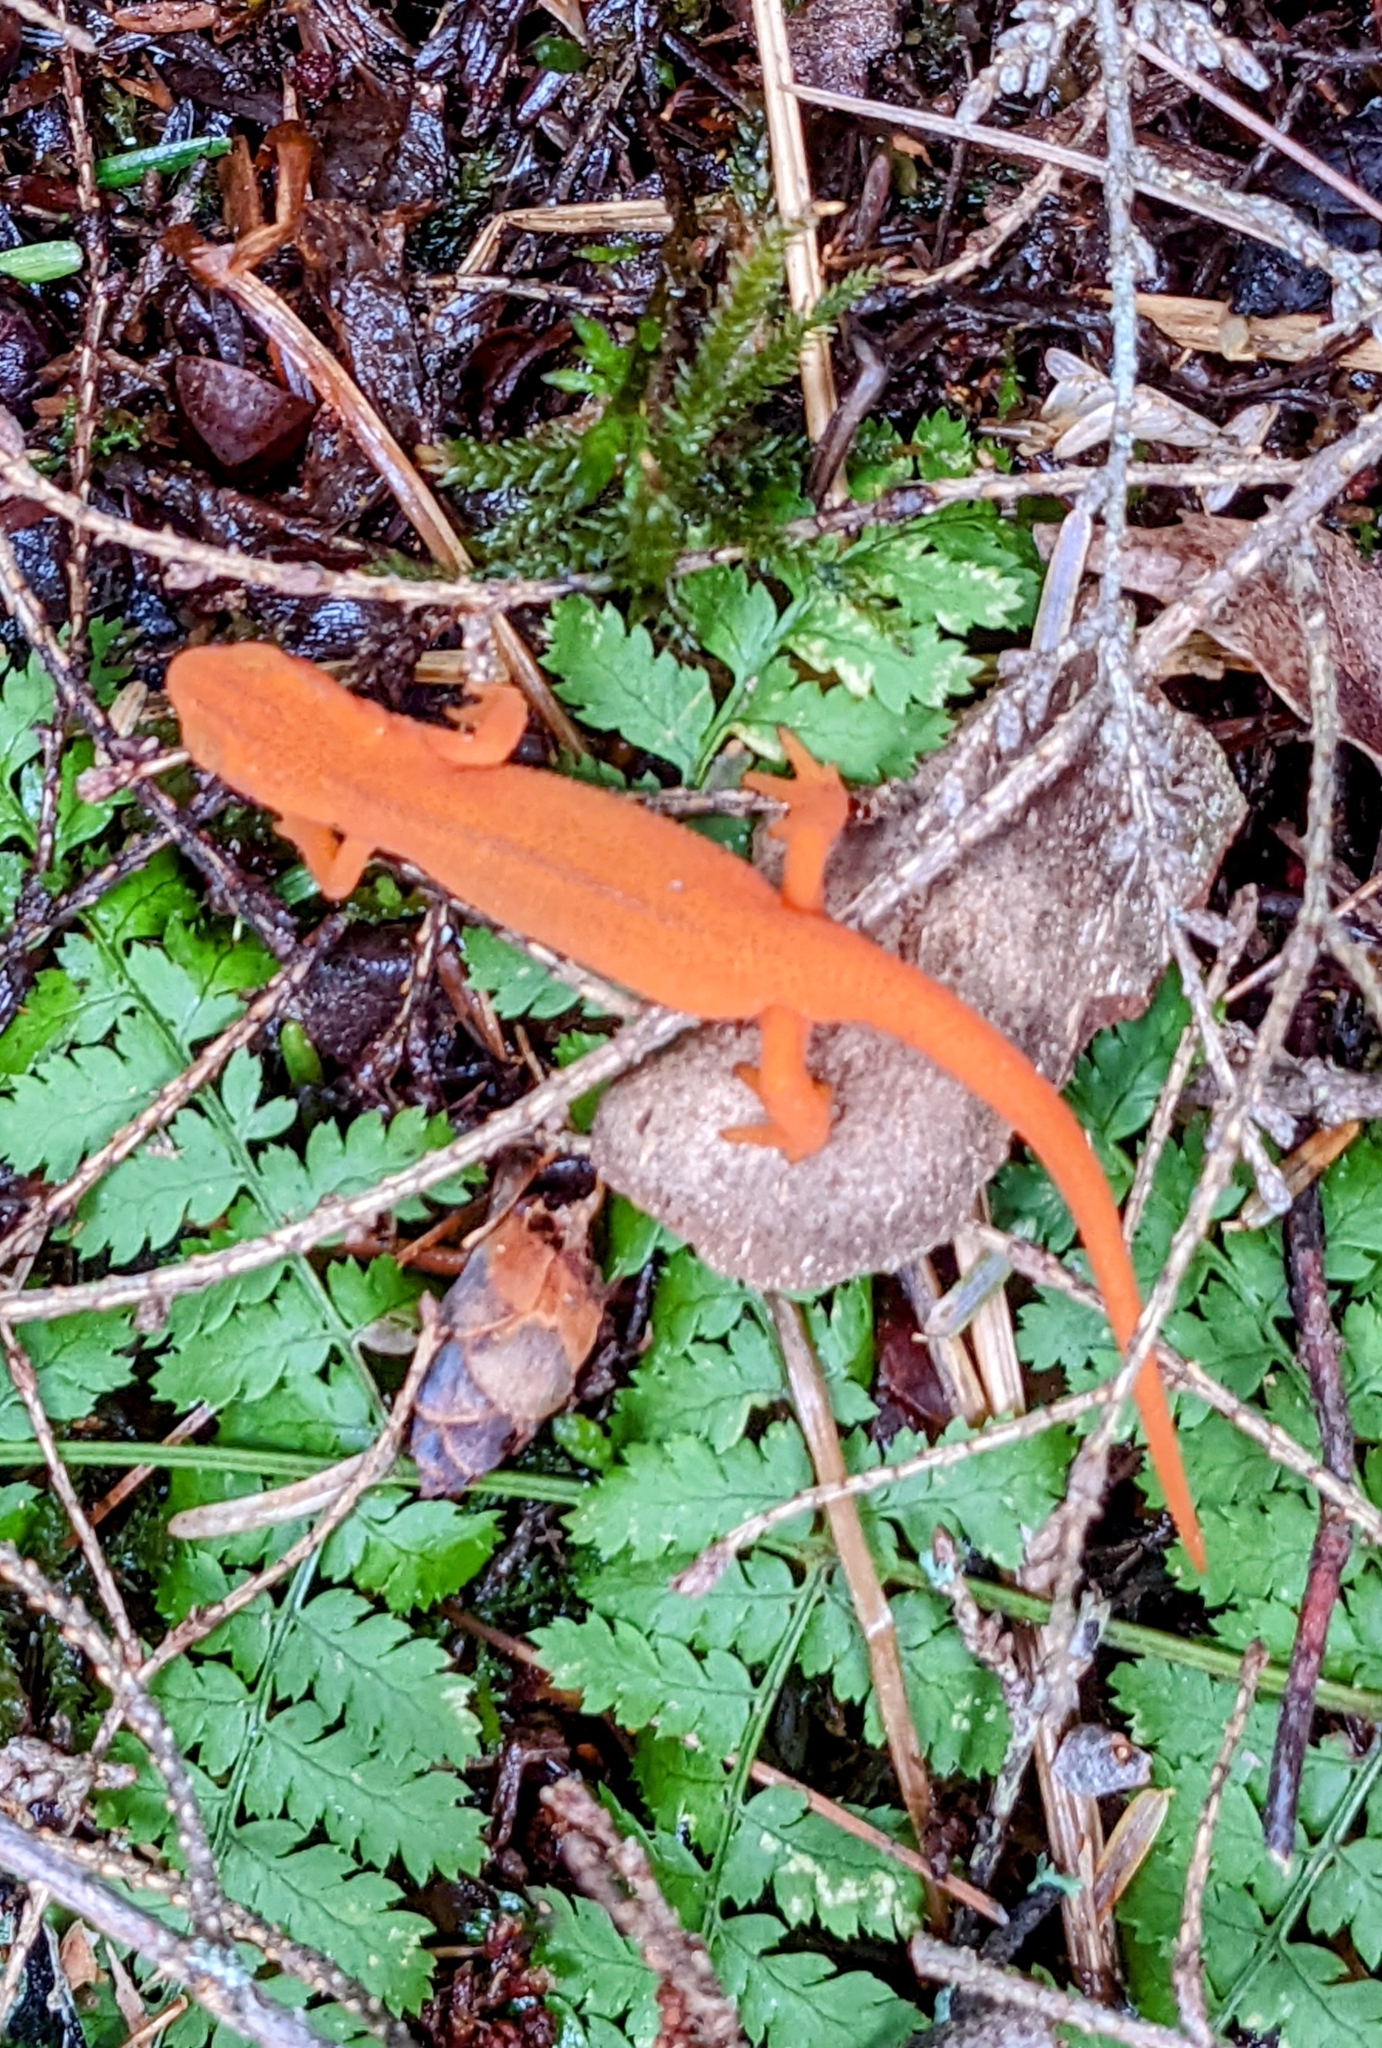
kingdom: Animalia
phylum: Chordata
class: Amphibia
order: Caudata
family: Salamandridae
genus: Notophthalmus
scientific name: Notophthalmus viridescens
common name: Eastern newt
